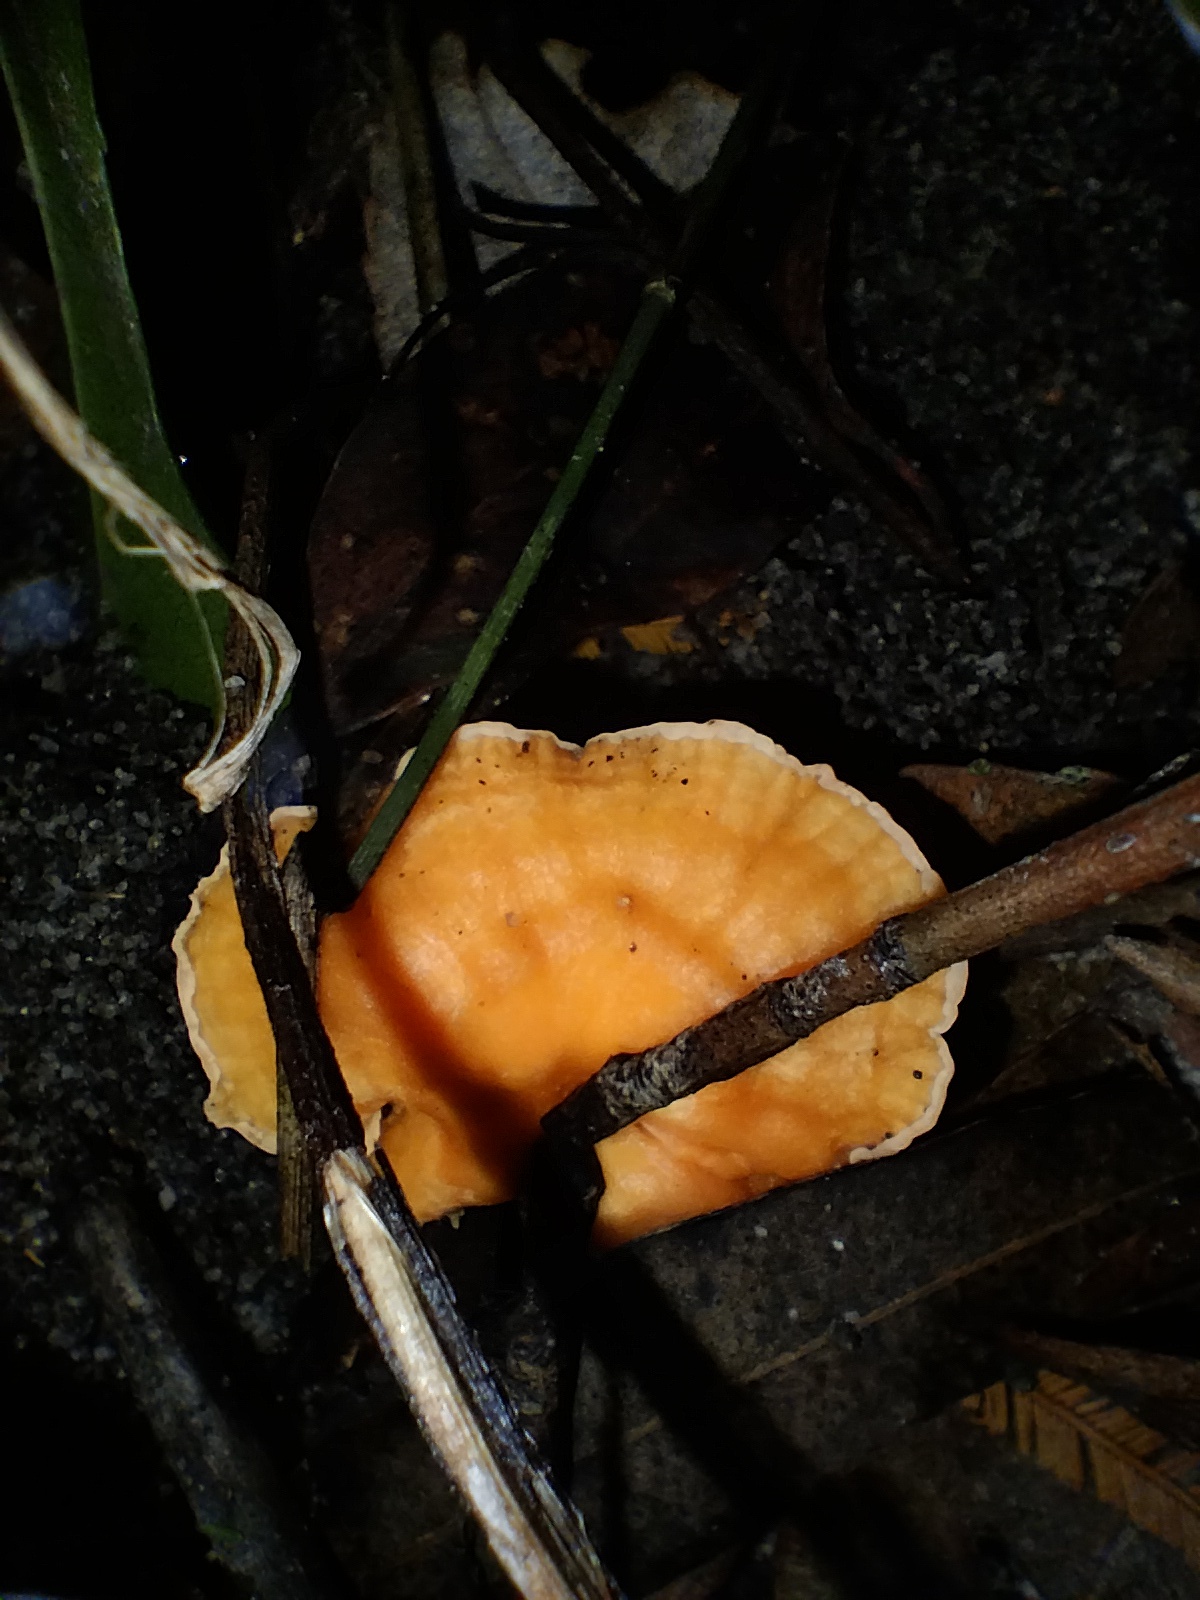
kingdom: Fungi
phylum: Basidiomycota
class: Agaricomycetes
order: Cantharellales
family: Hydnaceae
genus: Cantharellus
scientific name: Cantharellus
